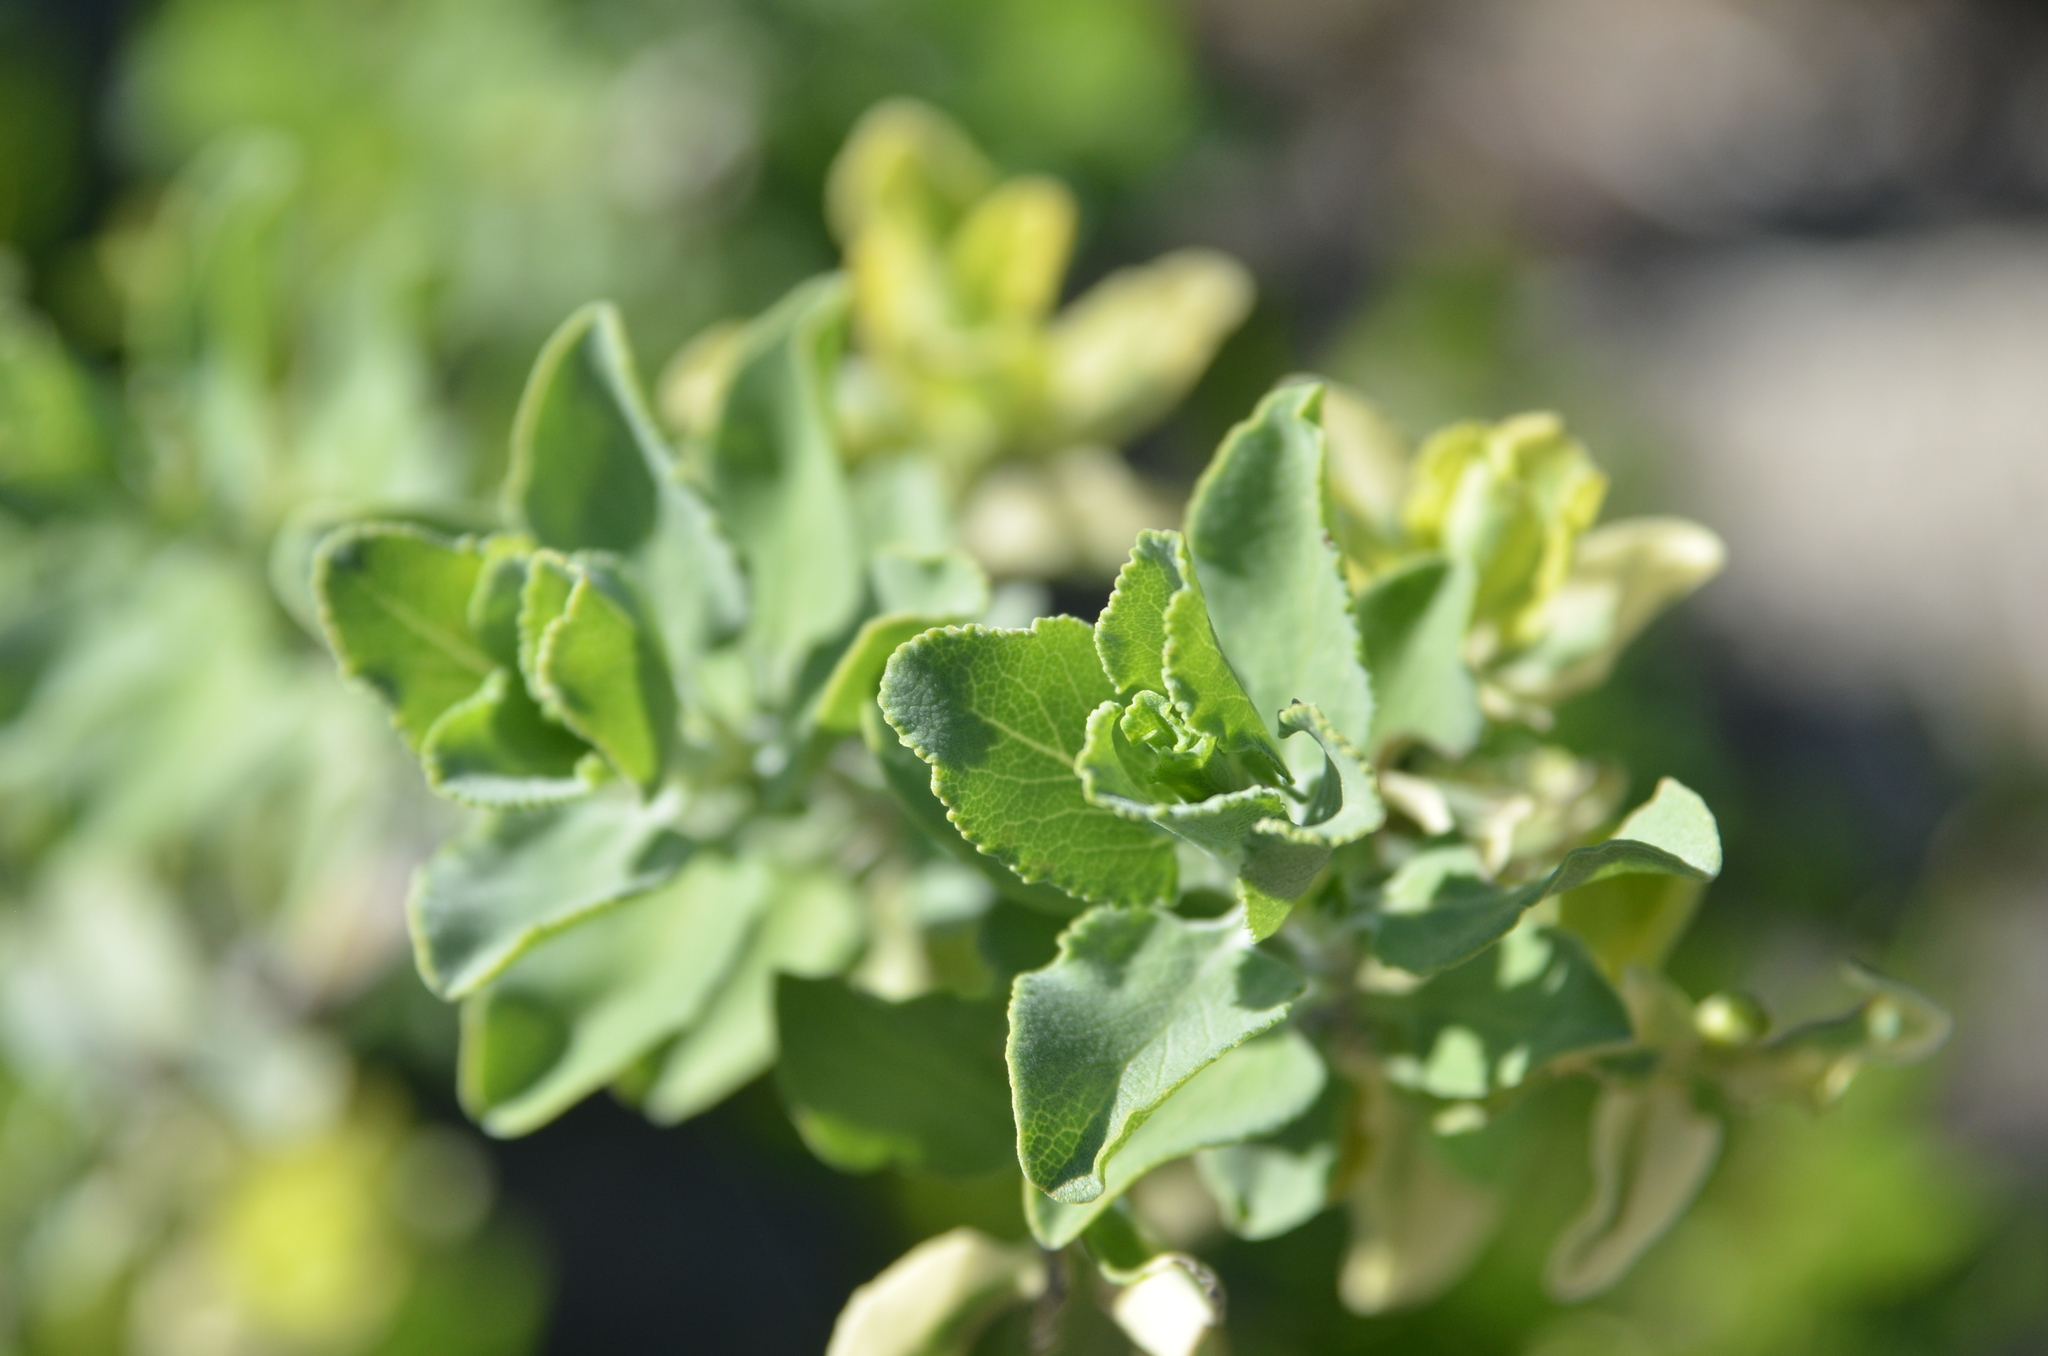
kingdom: Plantae
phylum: Tracheophyta
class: Magnoliopsida
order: Lamiales
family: Lamiaceae
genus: Salvia
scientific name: Salvia aurea
